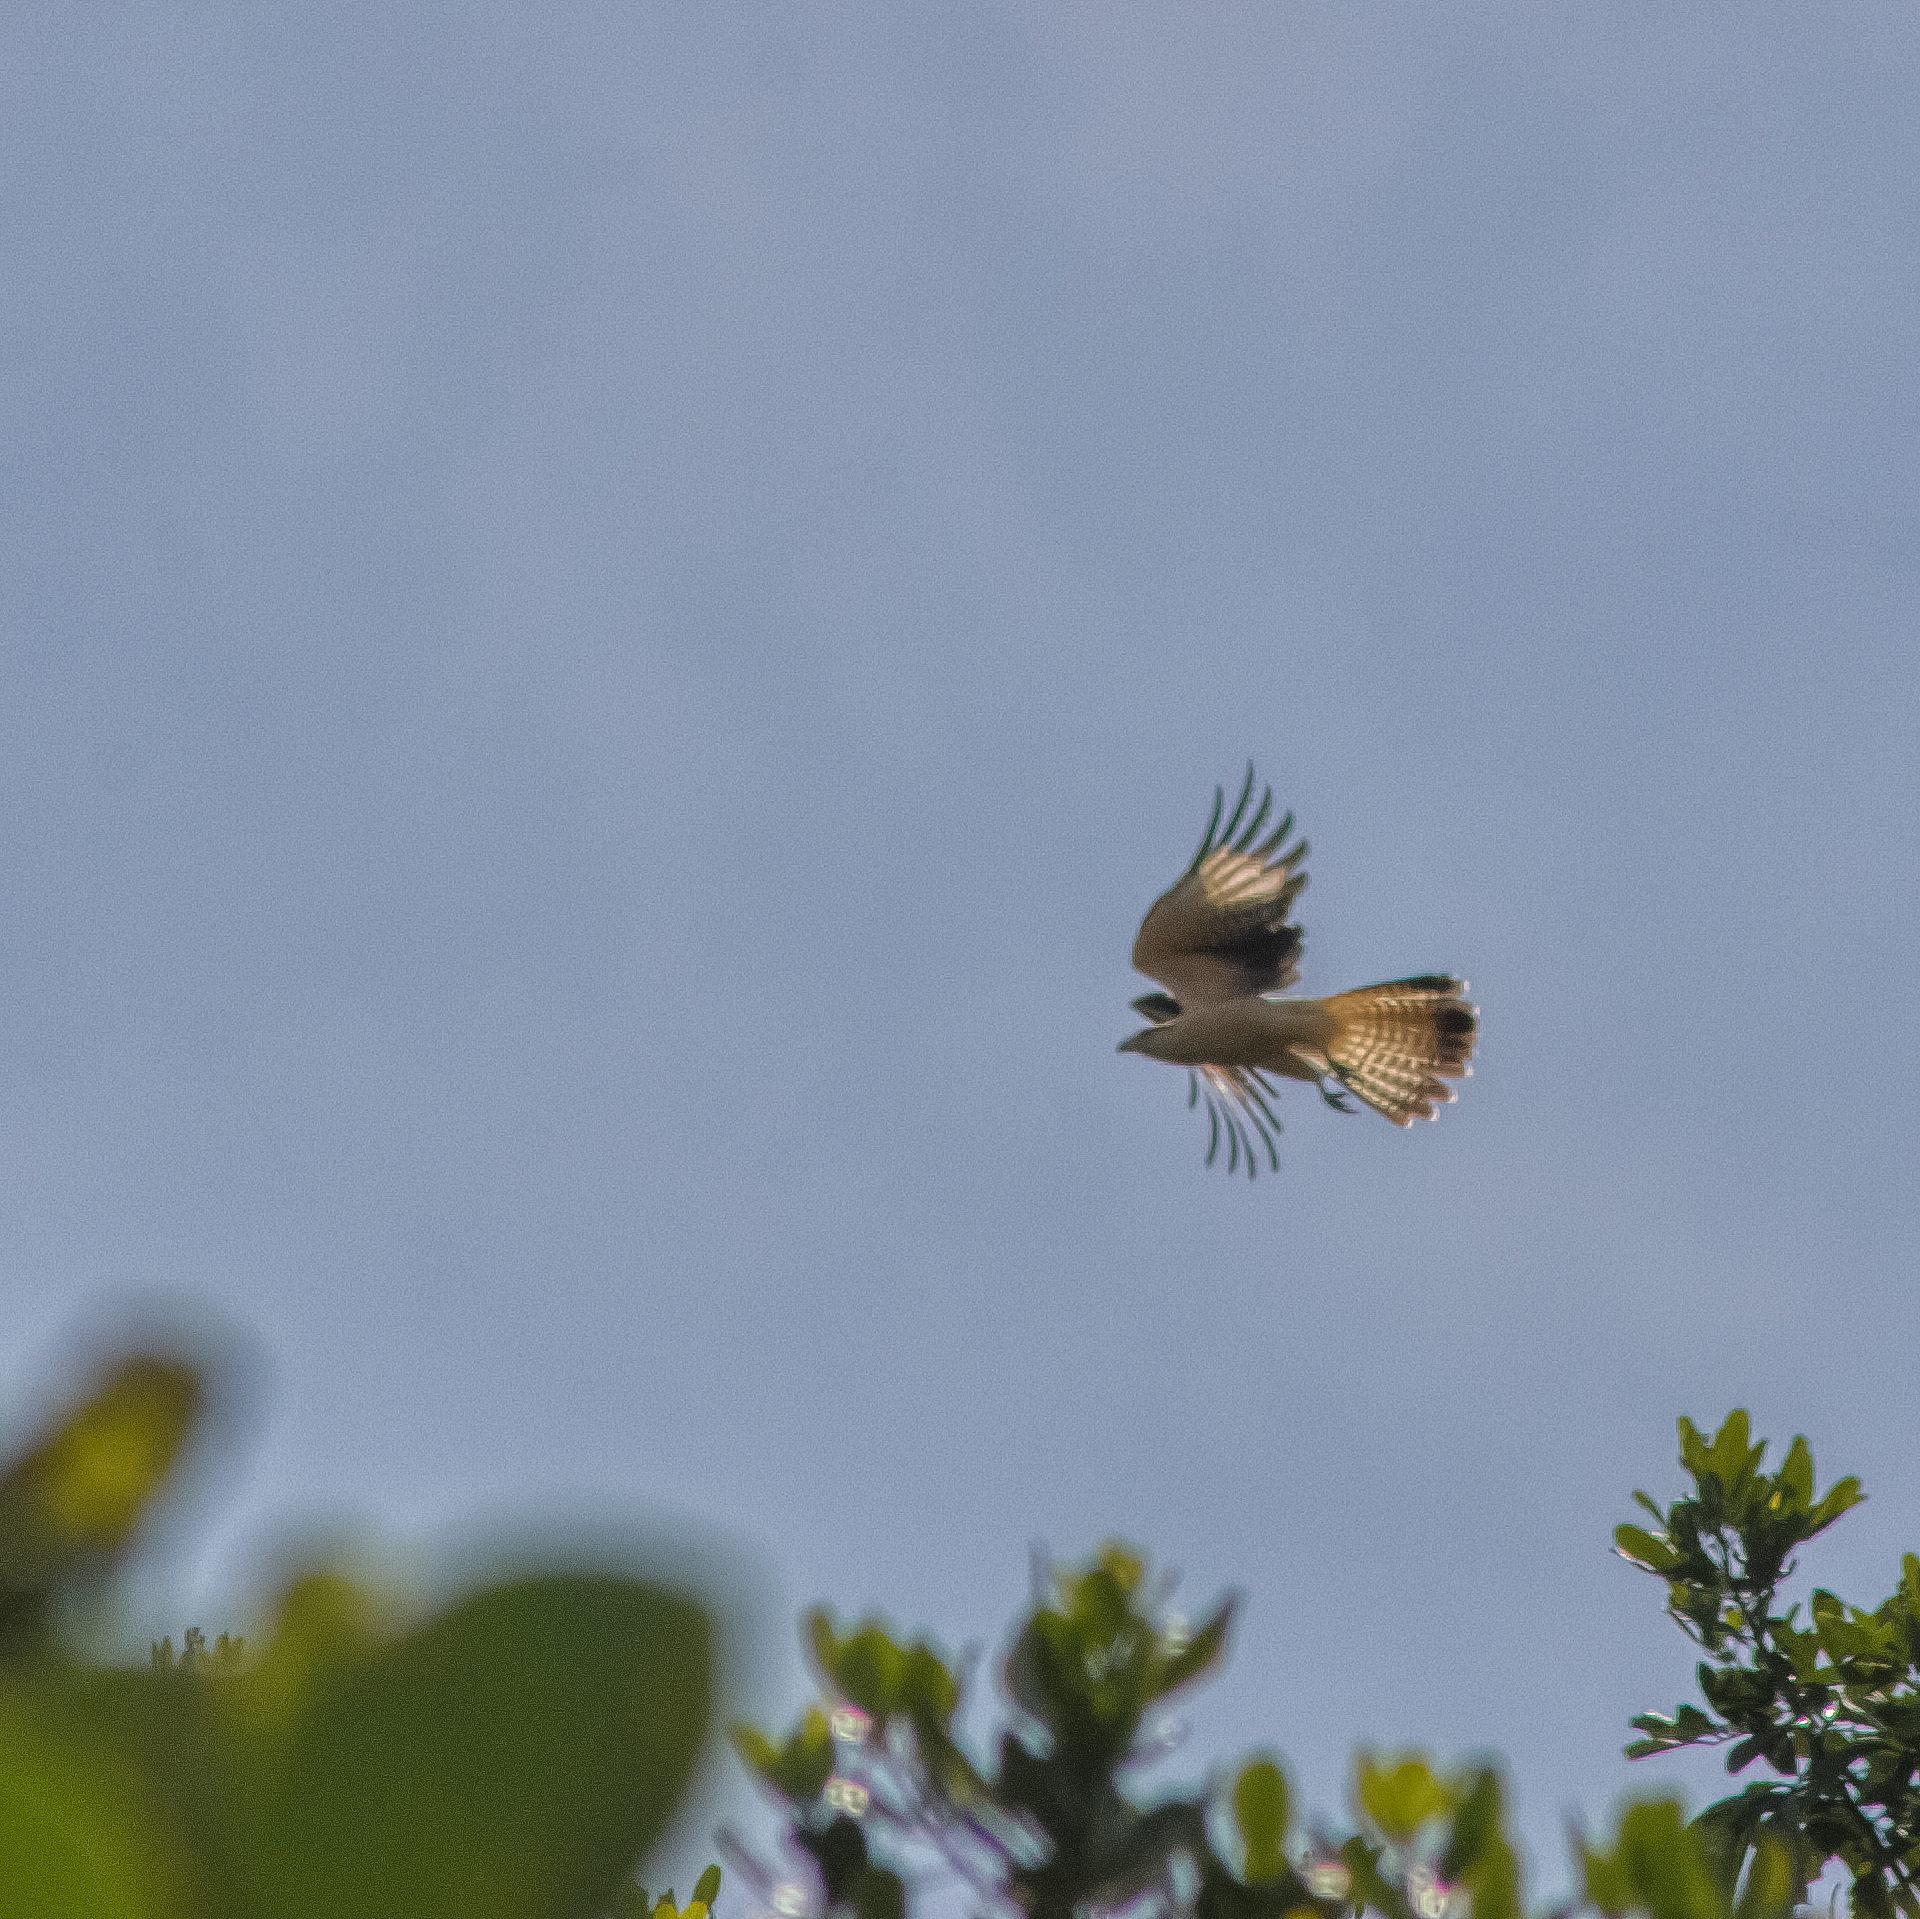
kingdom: Animalia
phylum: Chordata
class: Aves
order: Falconiformes
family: Falconidae
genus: Daptrius
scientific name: Daptrius
